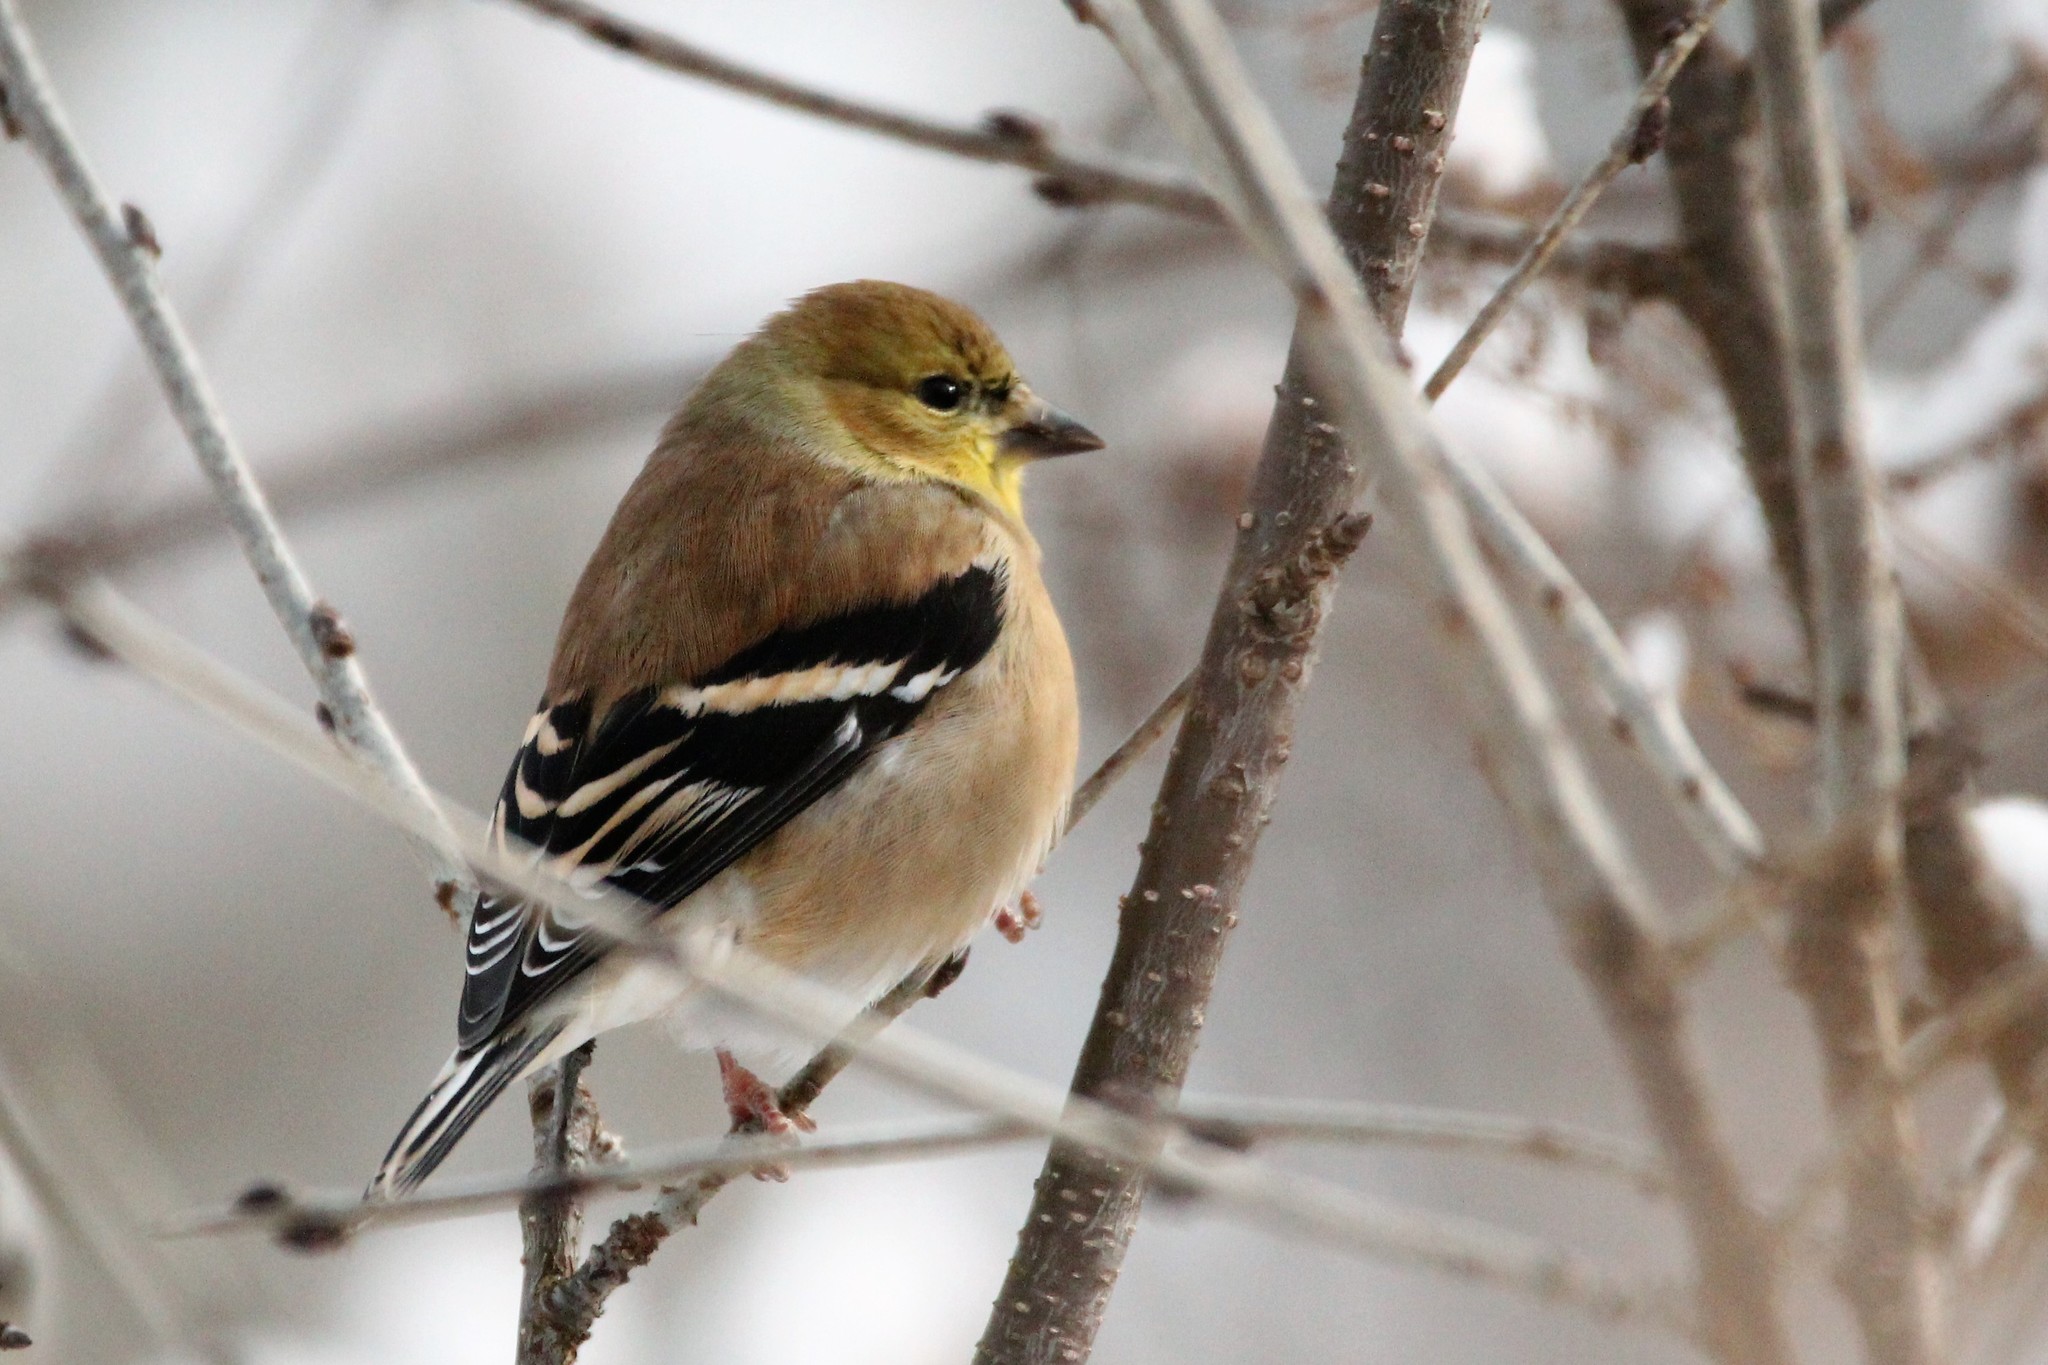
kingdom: Animalia
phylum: Chordata
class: Aves
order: Passeriformes
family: Fringillidae
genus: Spinus
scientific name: Spinus tristis
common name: American goldfinch
